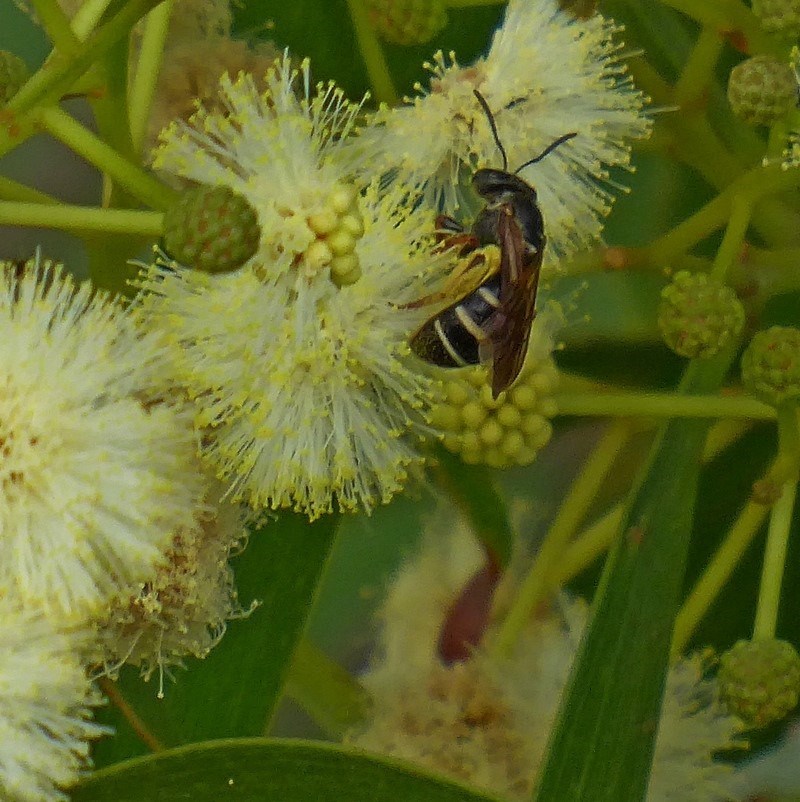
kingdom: Animalia
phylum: Arthropoda
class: Insecta
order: Hymenoptera
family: Halictidae
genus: Lasioglossum
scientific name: Lasioglossum peraustrale
